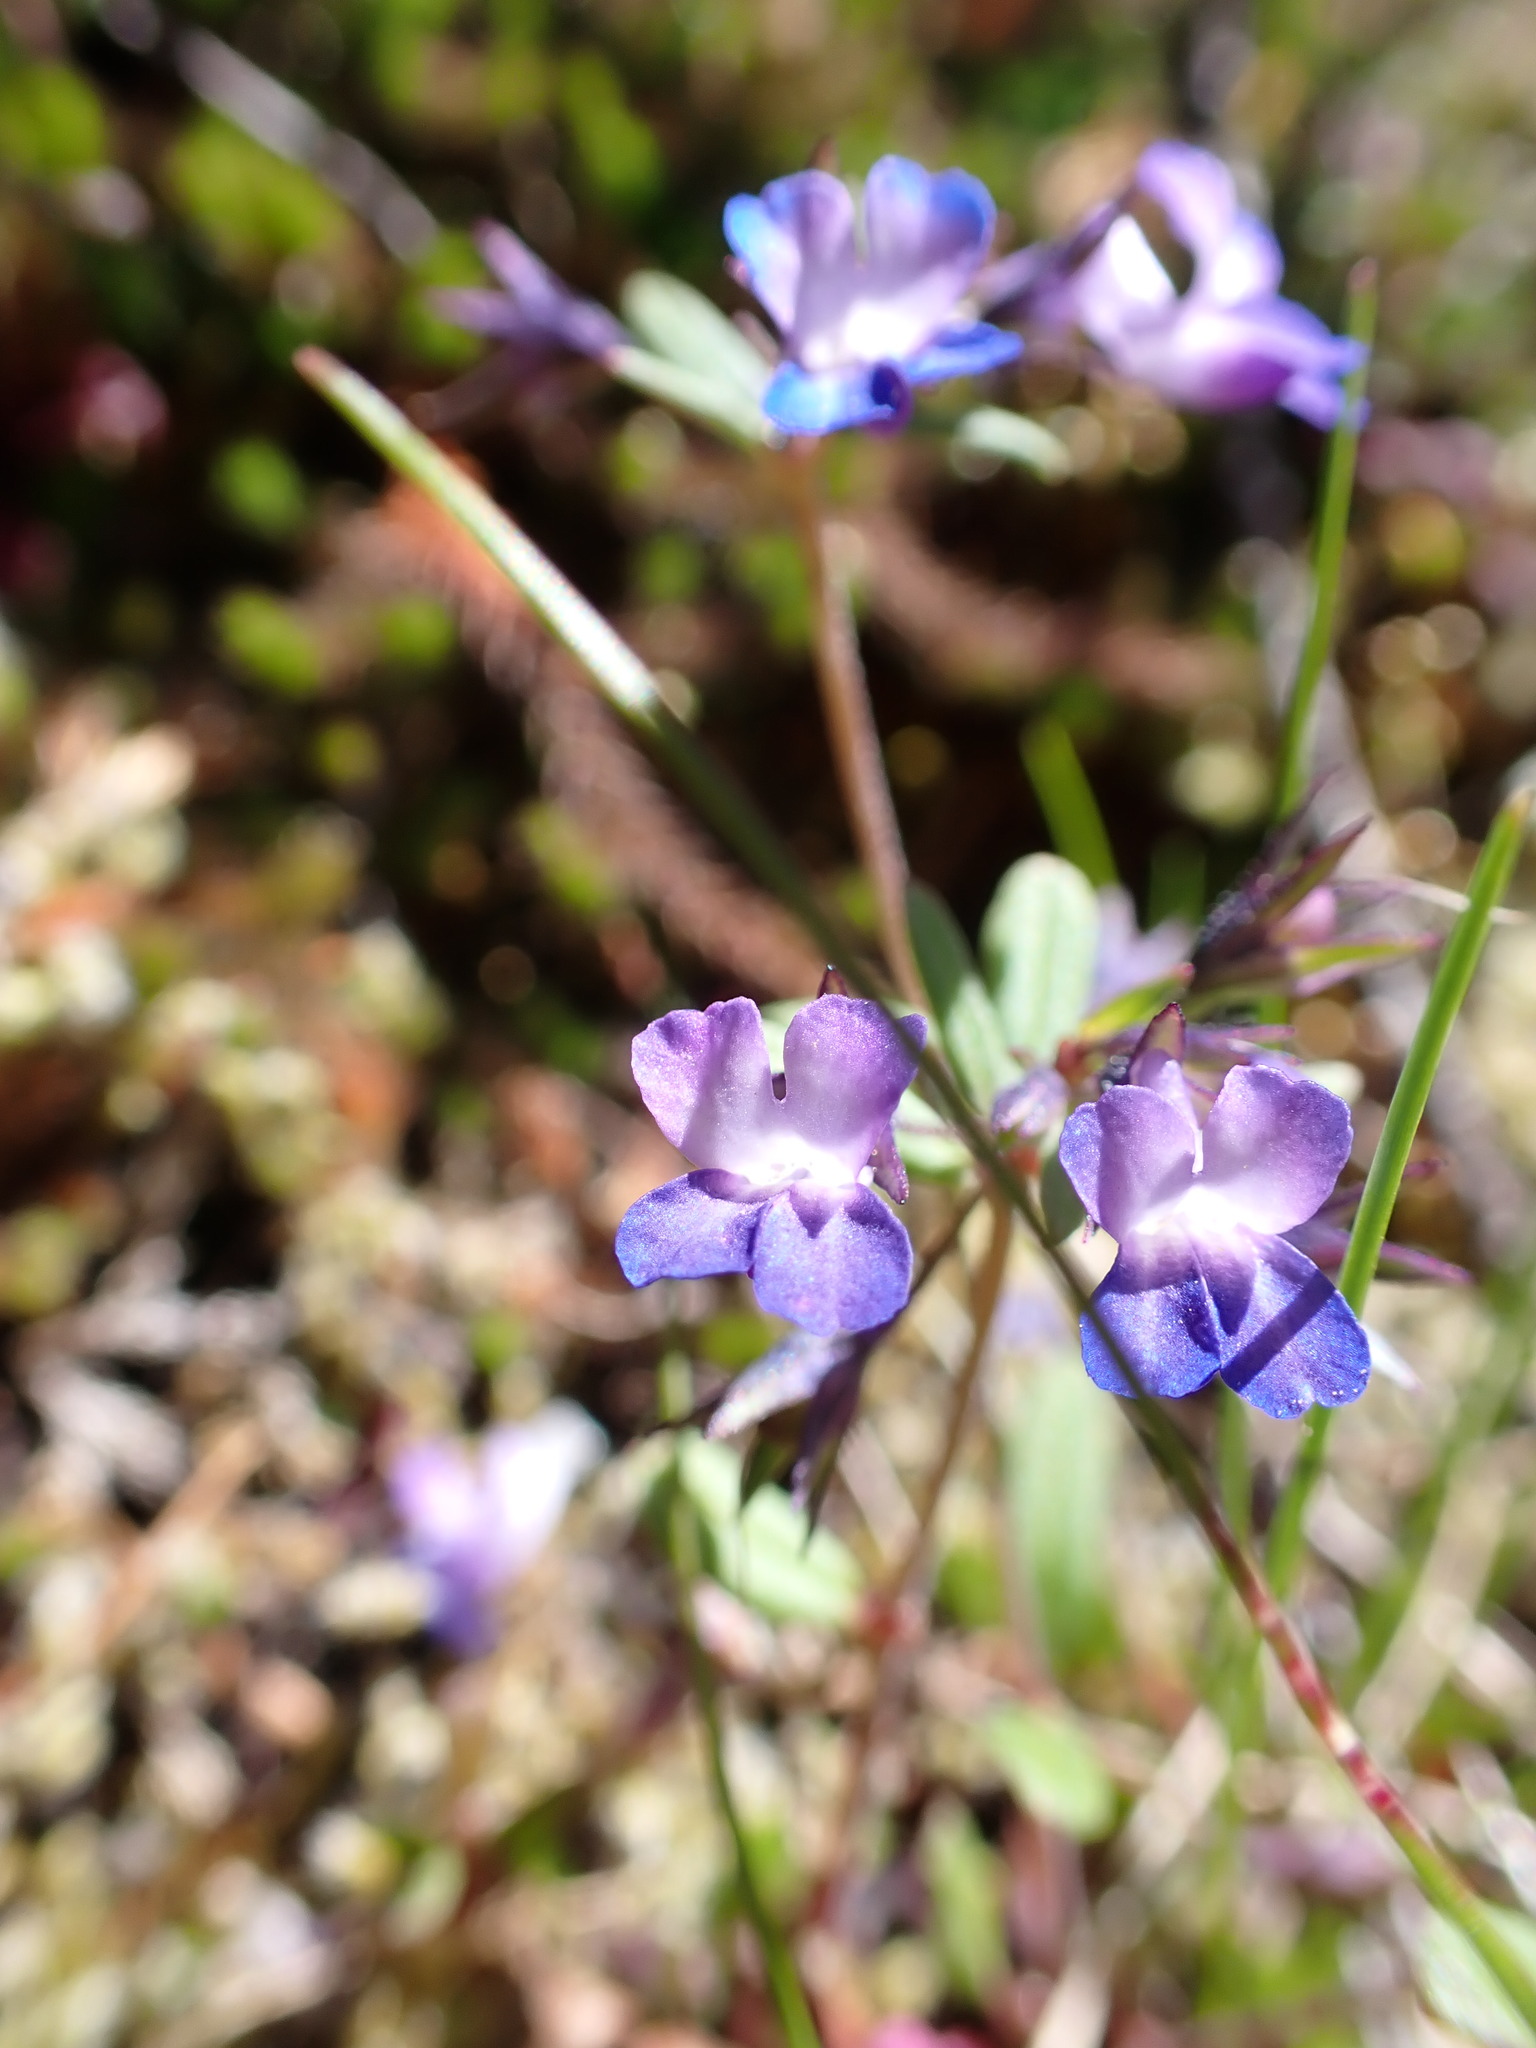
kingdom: Plantae
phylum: Tracheophyta
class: Magnoliopsida
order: Lamiales
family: Plantaginaceae
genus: Collinsia
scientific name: Collinsia grandiflora
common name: Large-flower blue-eyed-mary
